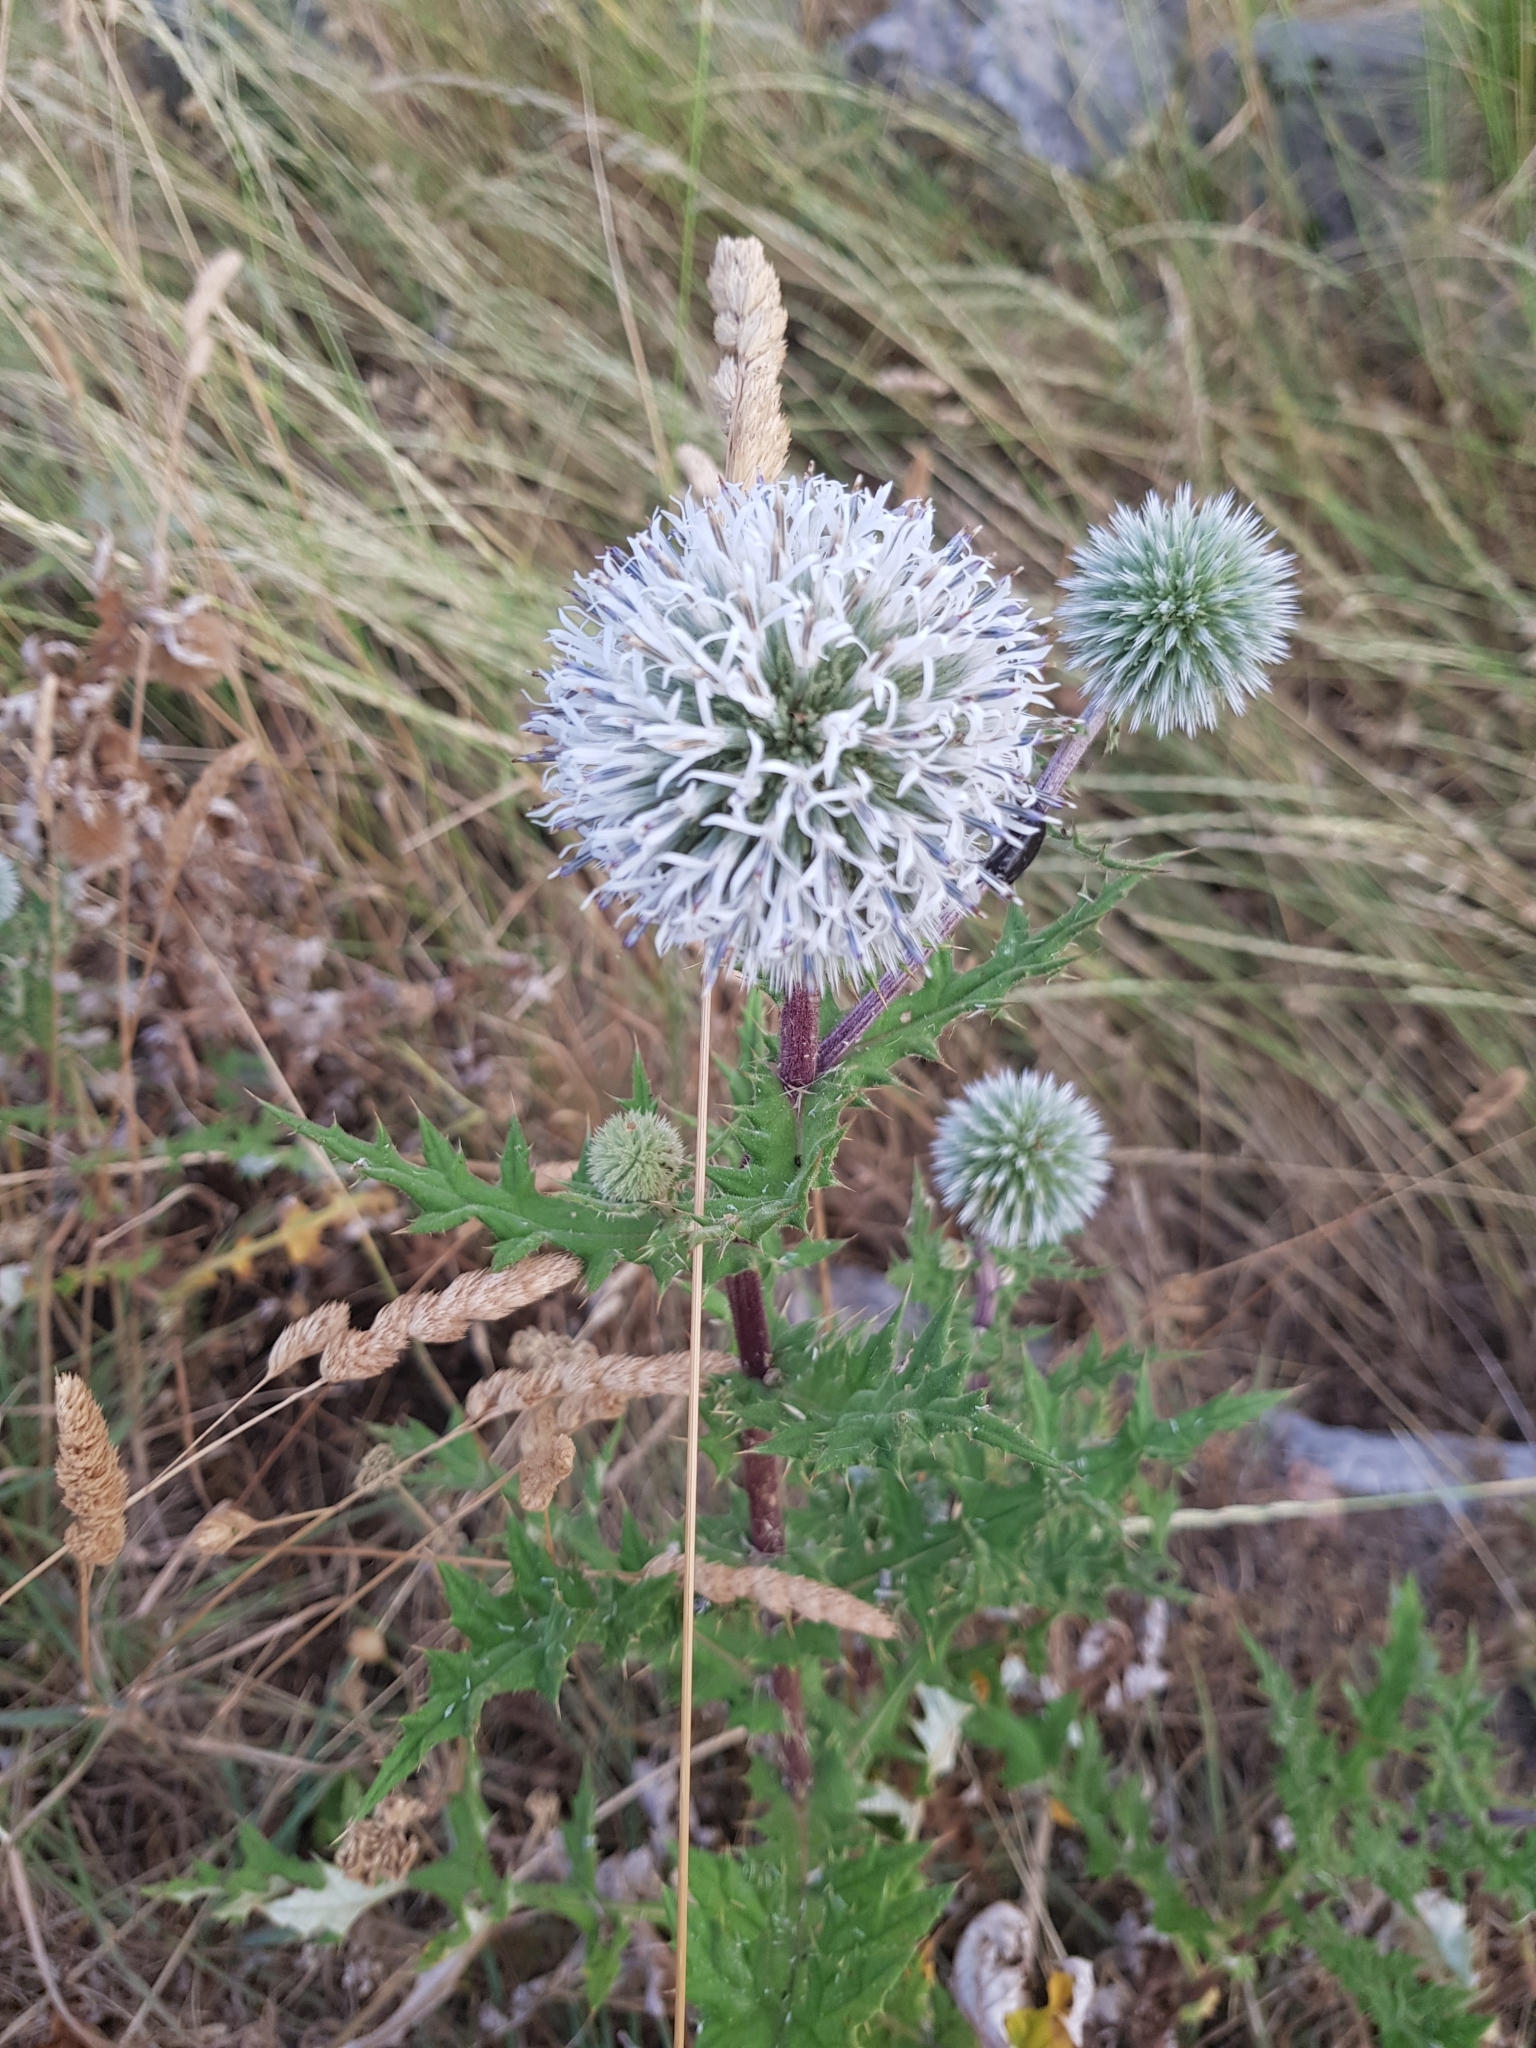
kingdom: Plantae
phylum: Tracheophyta
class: Magnoliopsida
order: Asterales
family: Asteraceae
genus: Echinops
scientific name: Echinops sphaerocephalus
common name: Glandular globe-thistle
